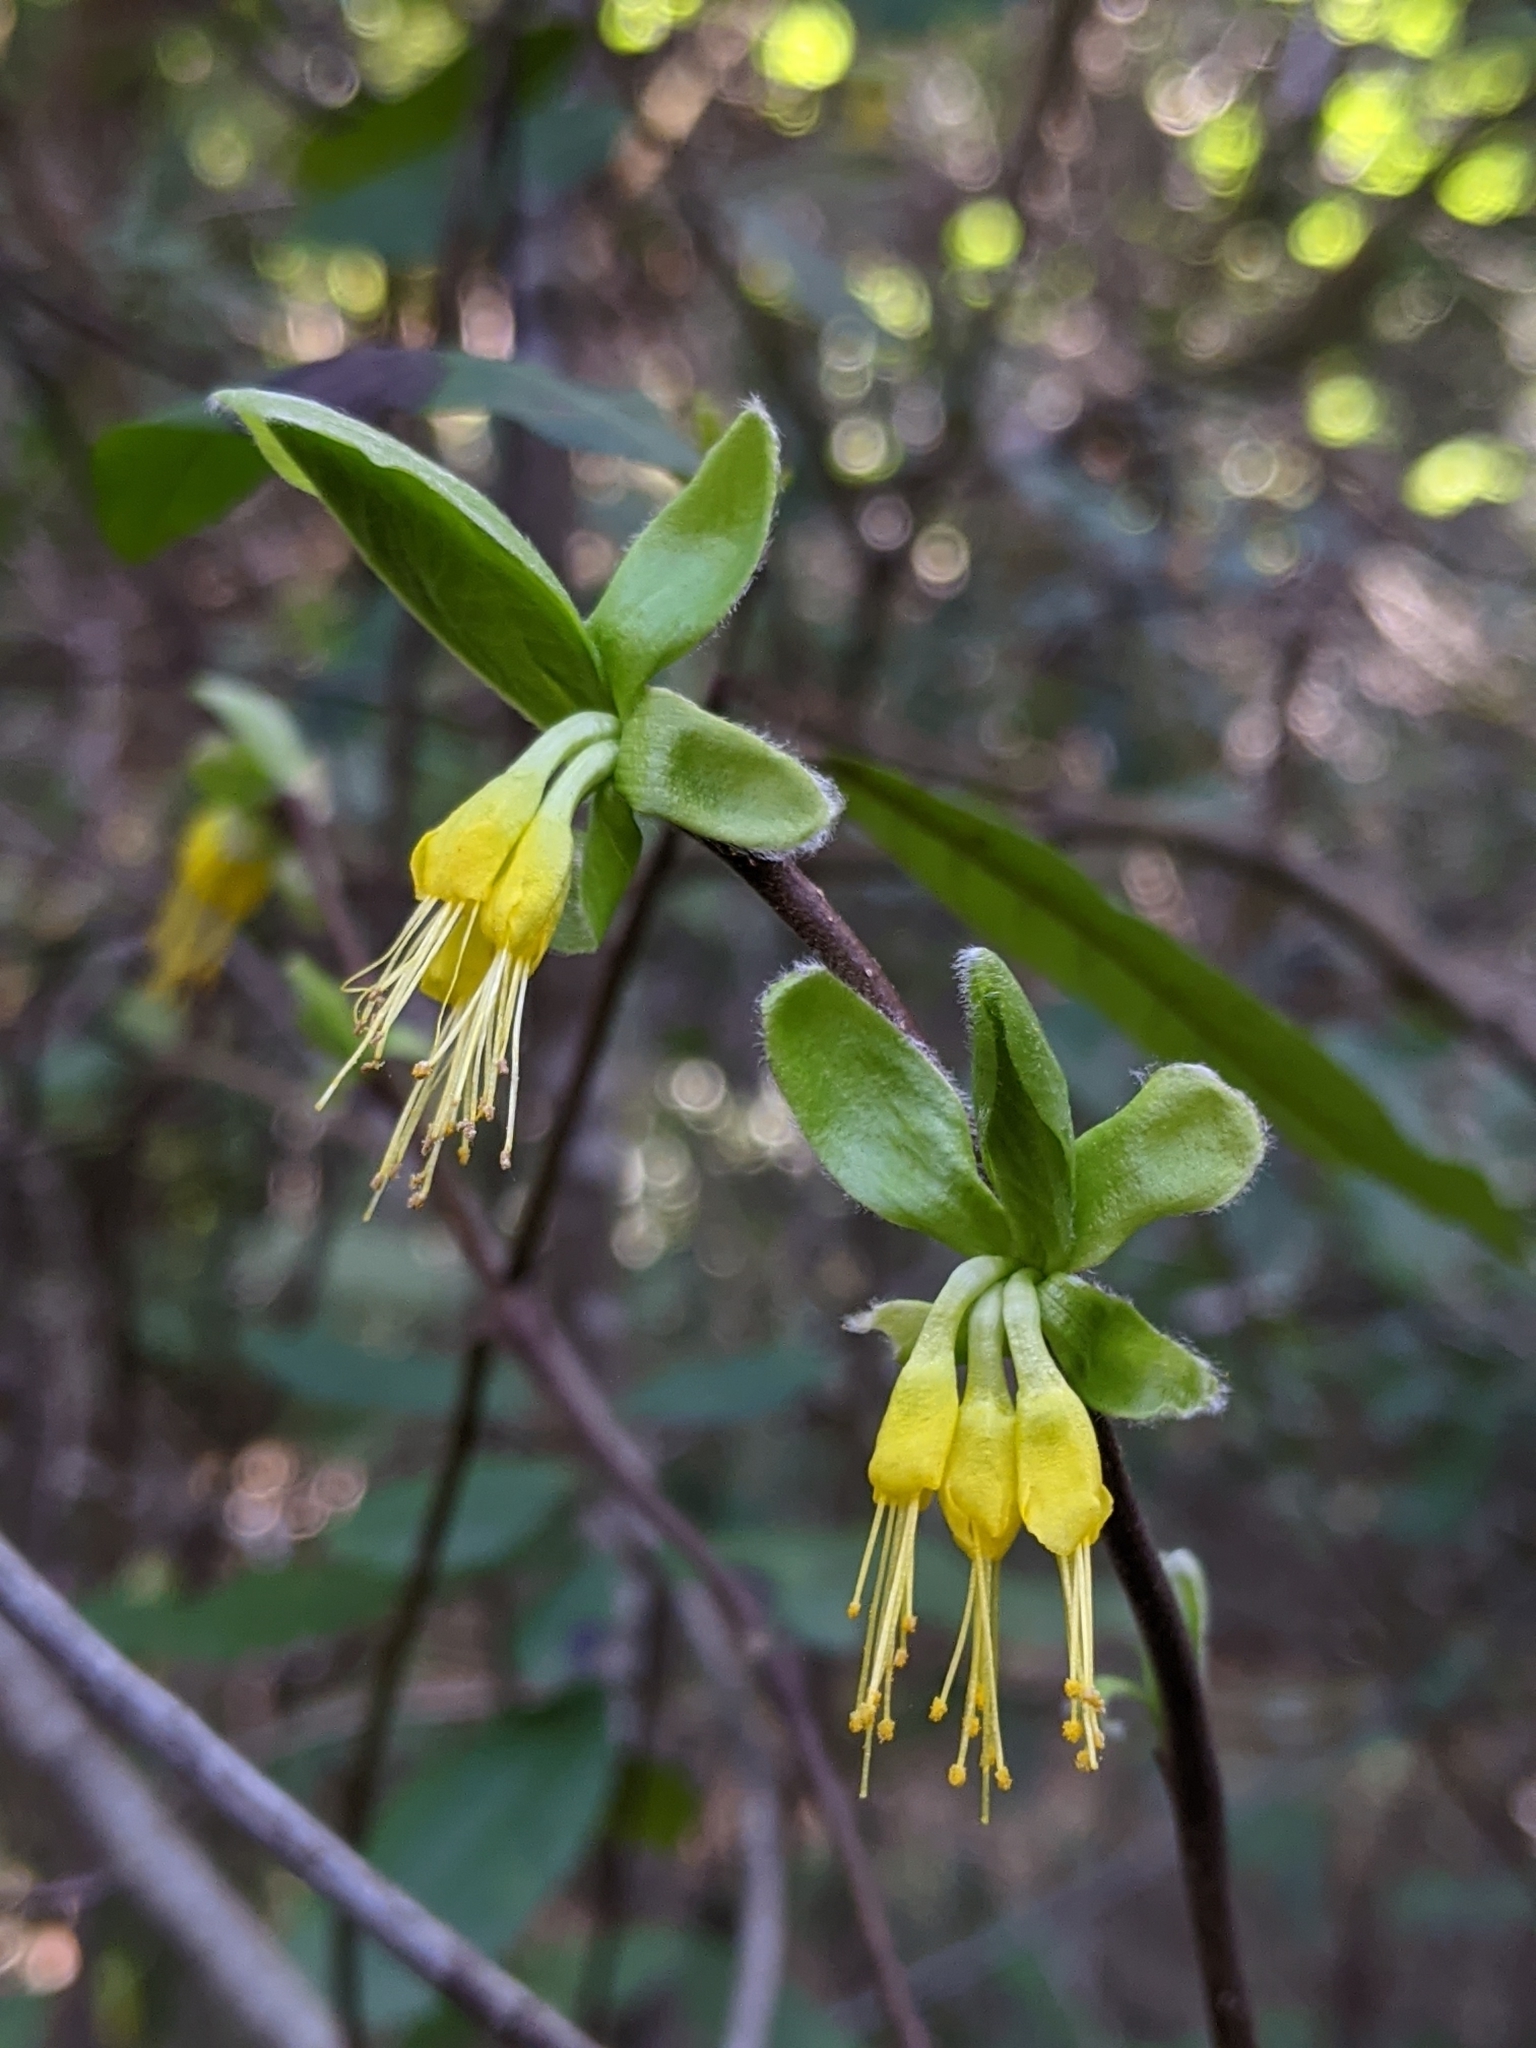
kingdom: Plantae
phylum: Tracheophyta
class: Magnoliopsida
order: Malvales
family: Thymelaeaceae
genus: Dirca
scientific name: Dirca occidentalis
